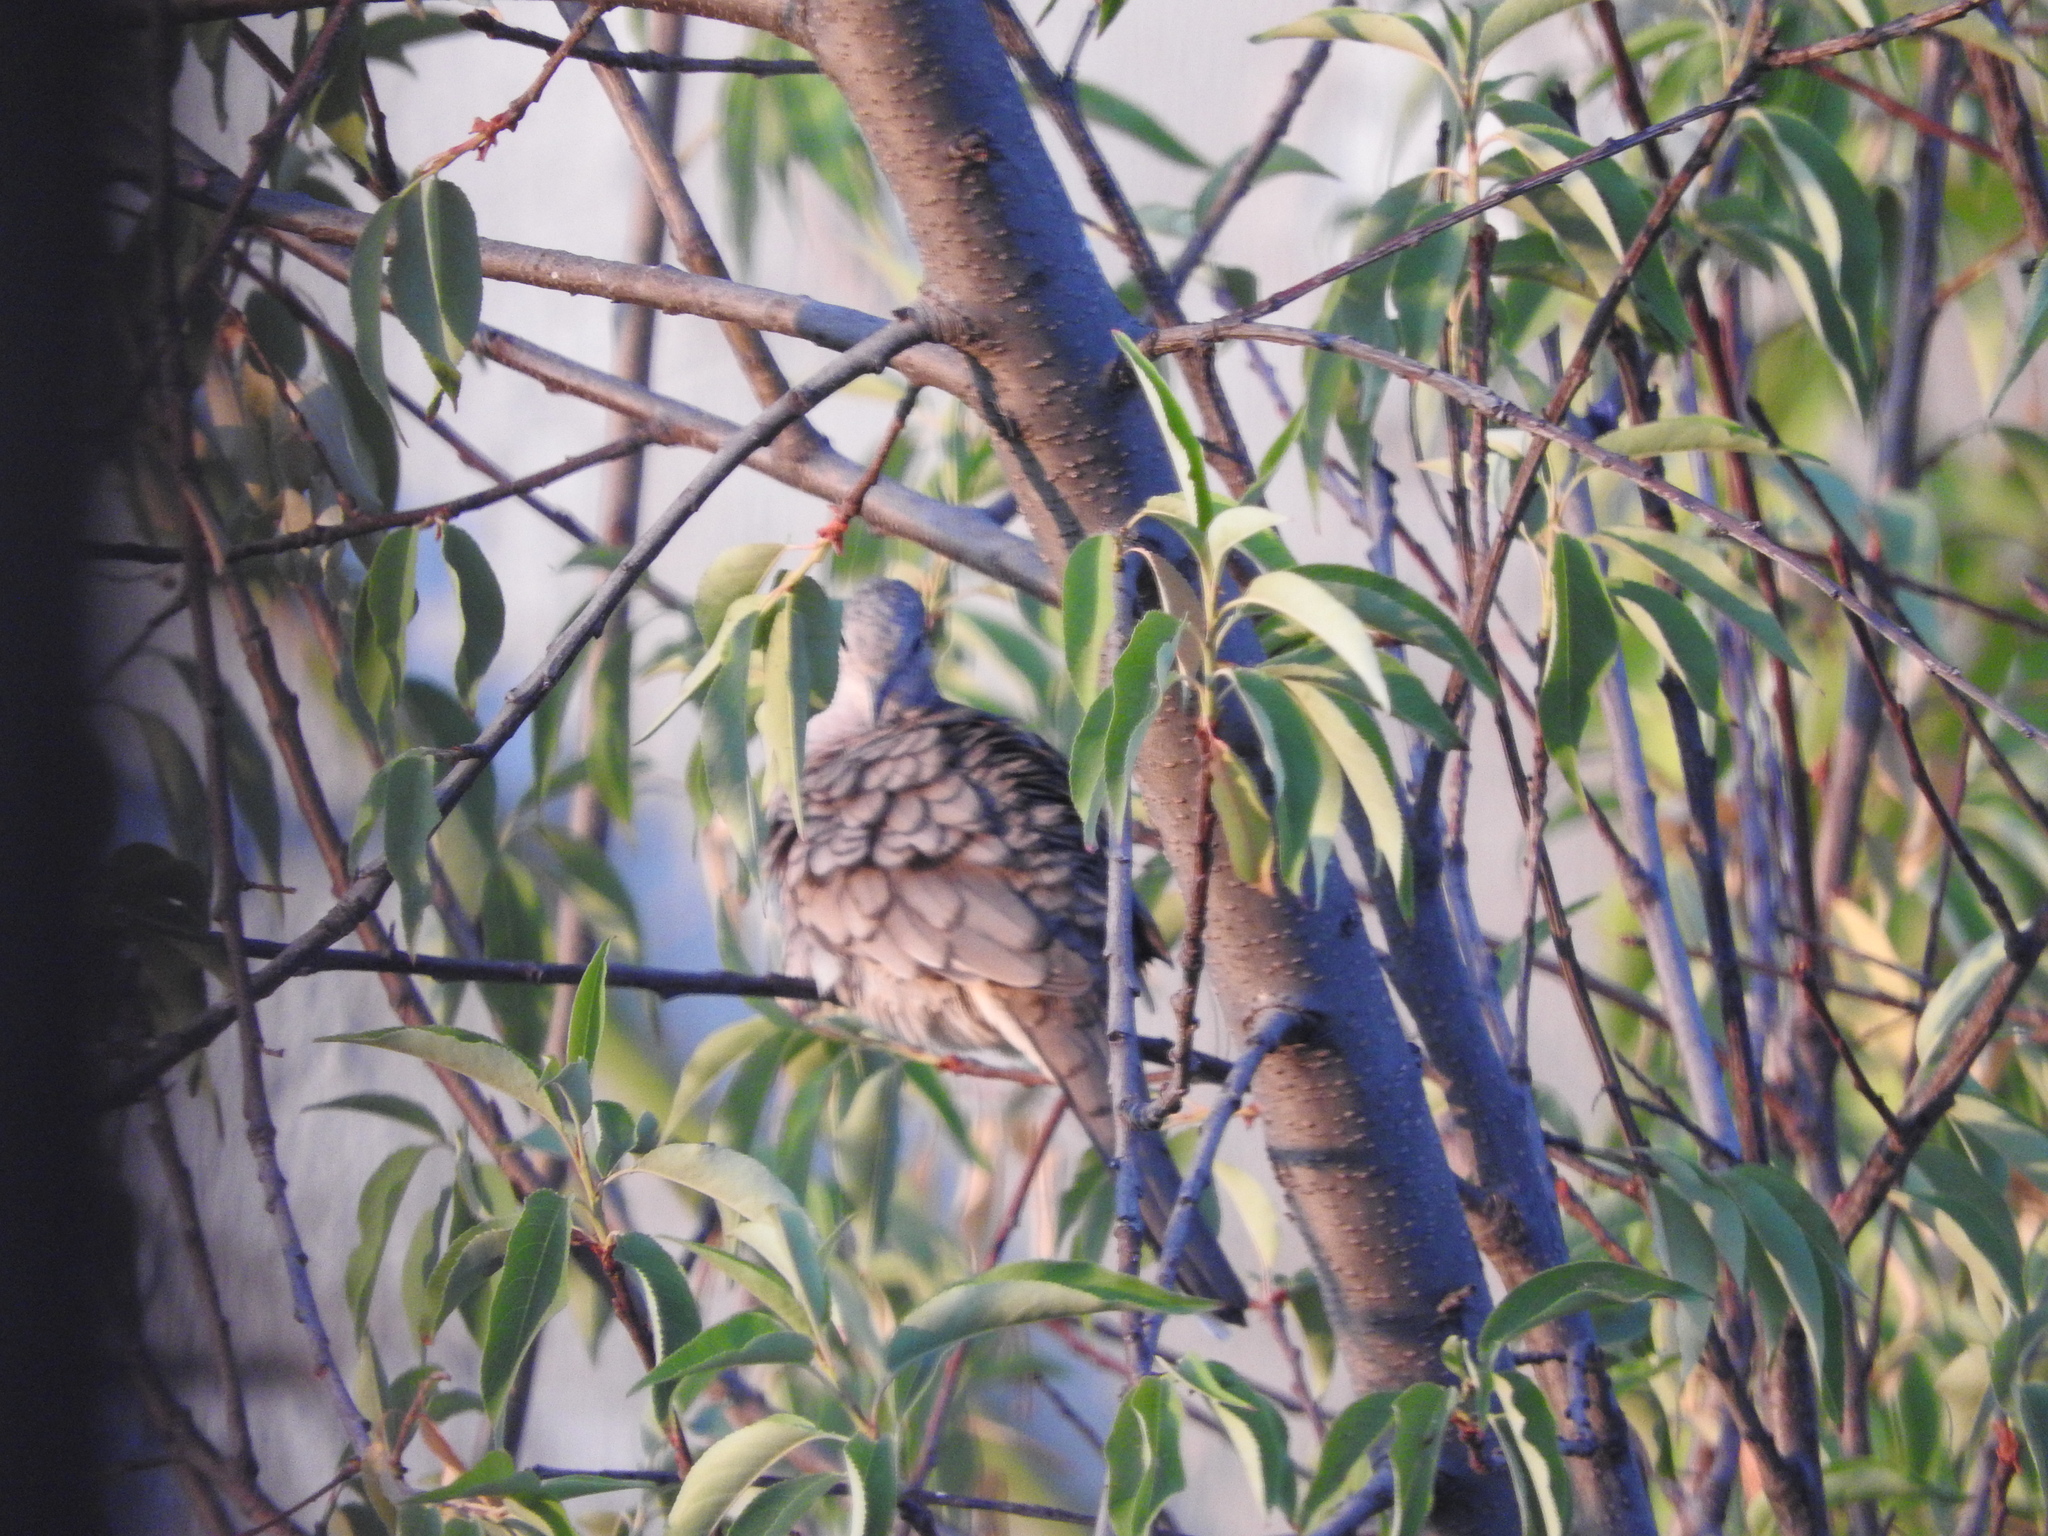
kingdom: Animalia
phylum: Chordata
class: Aves
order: Columbiformes
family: Columbidae
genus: Columbina
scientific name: Columbina inca
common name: Inca dove
